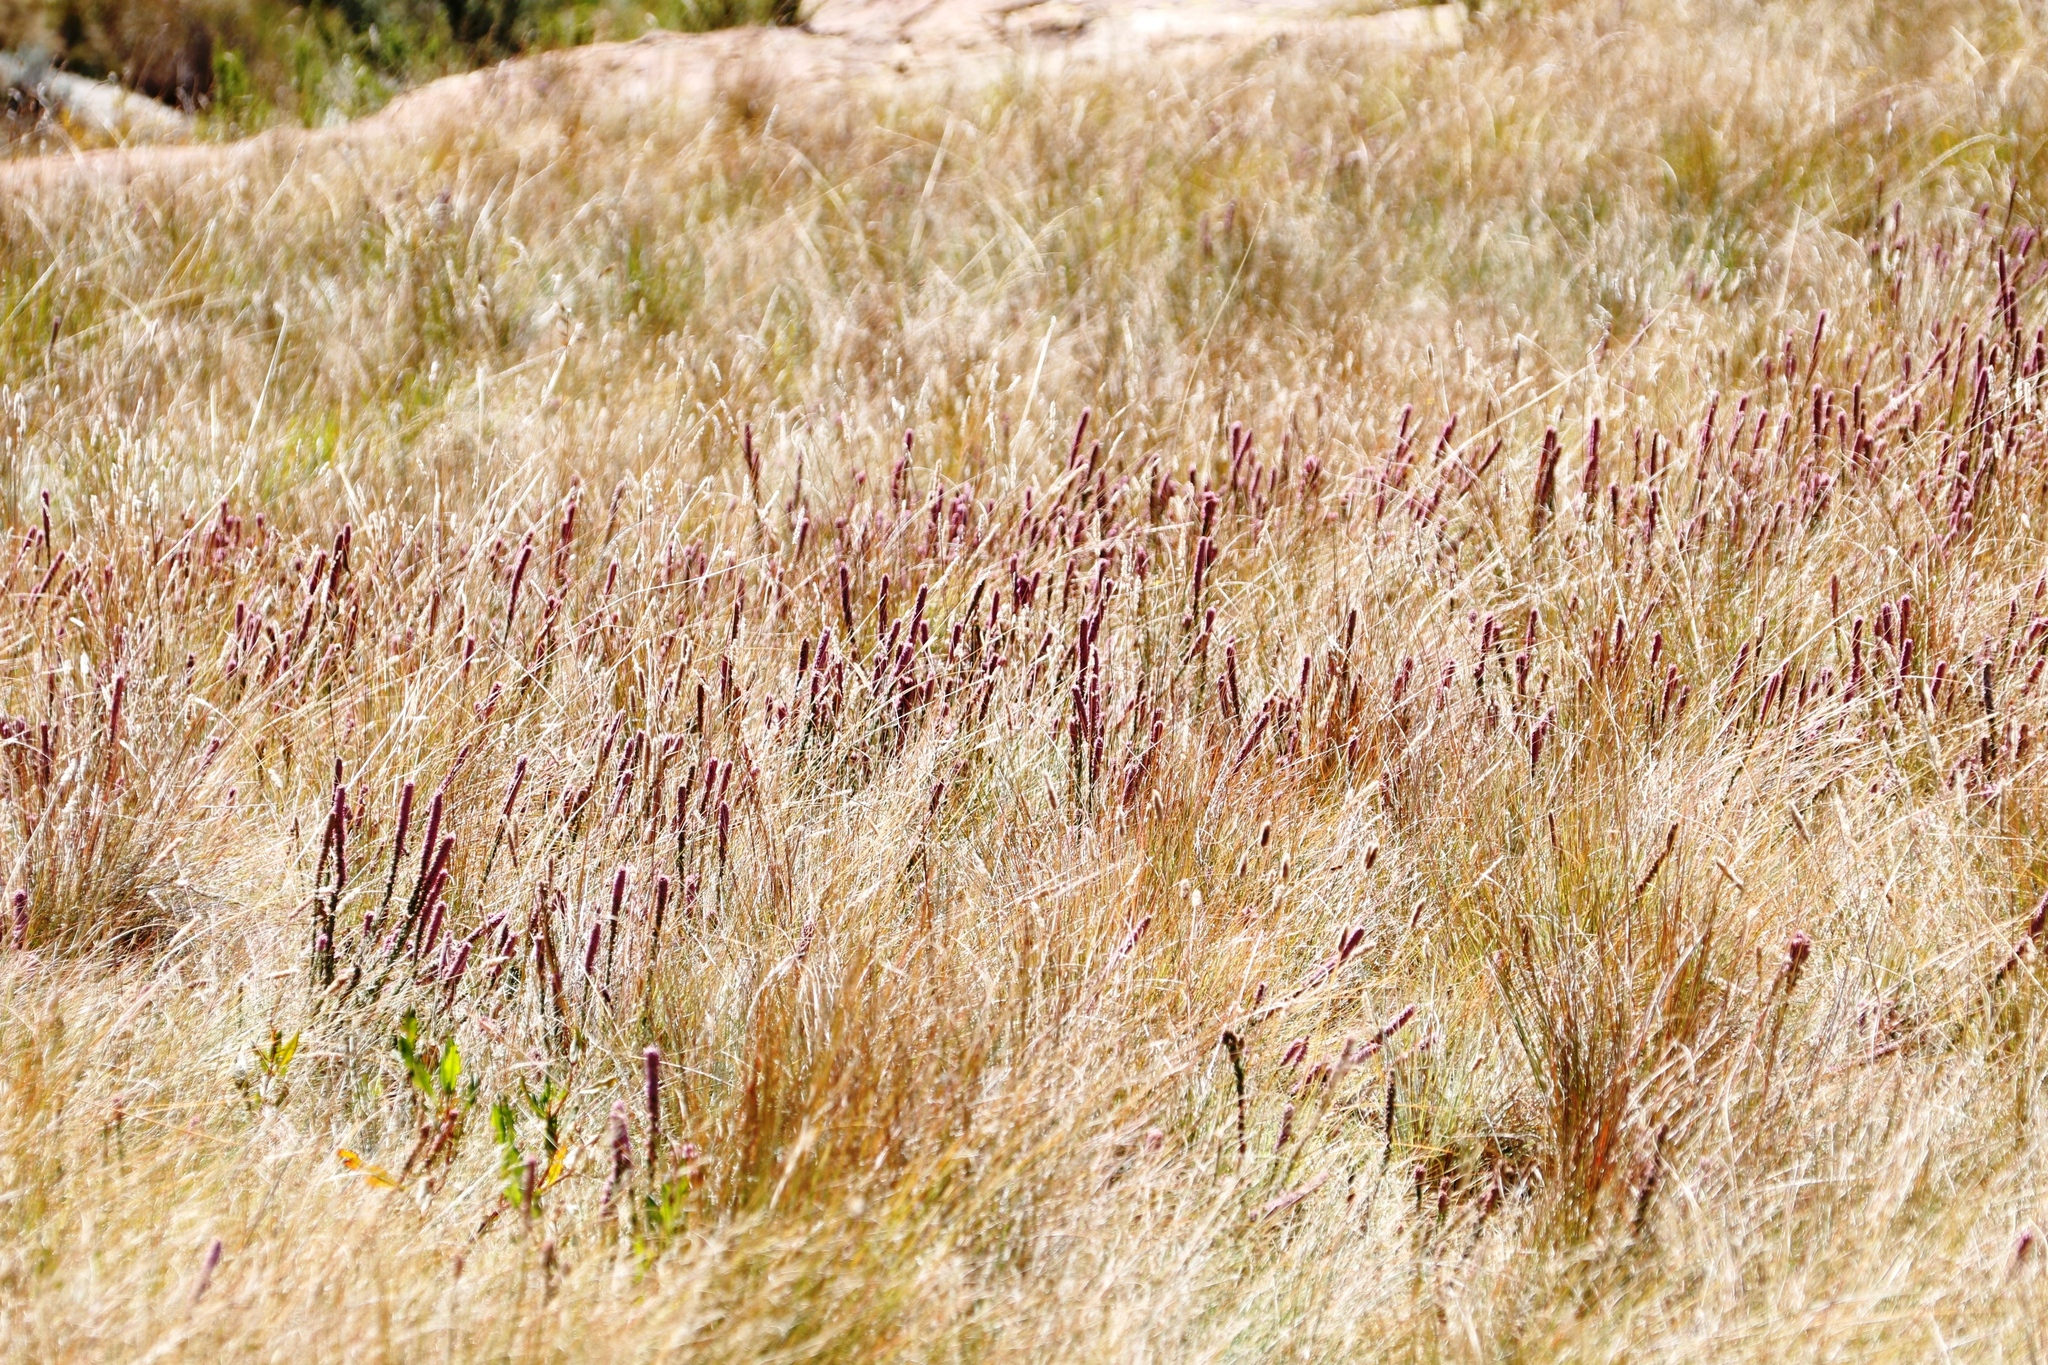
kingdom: Plantae
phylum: Tracheophyta
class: Magnoliopsida
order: Ericales
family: Ericaceae
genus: Erica
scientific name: Erica alopecurus
